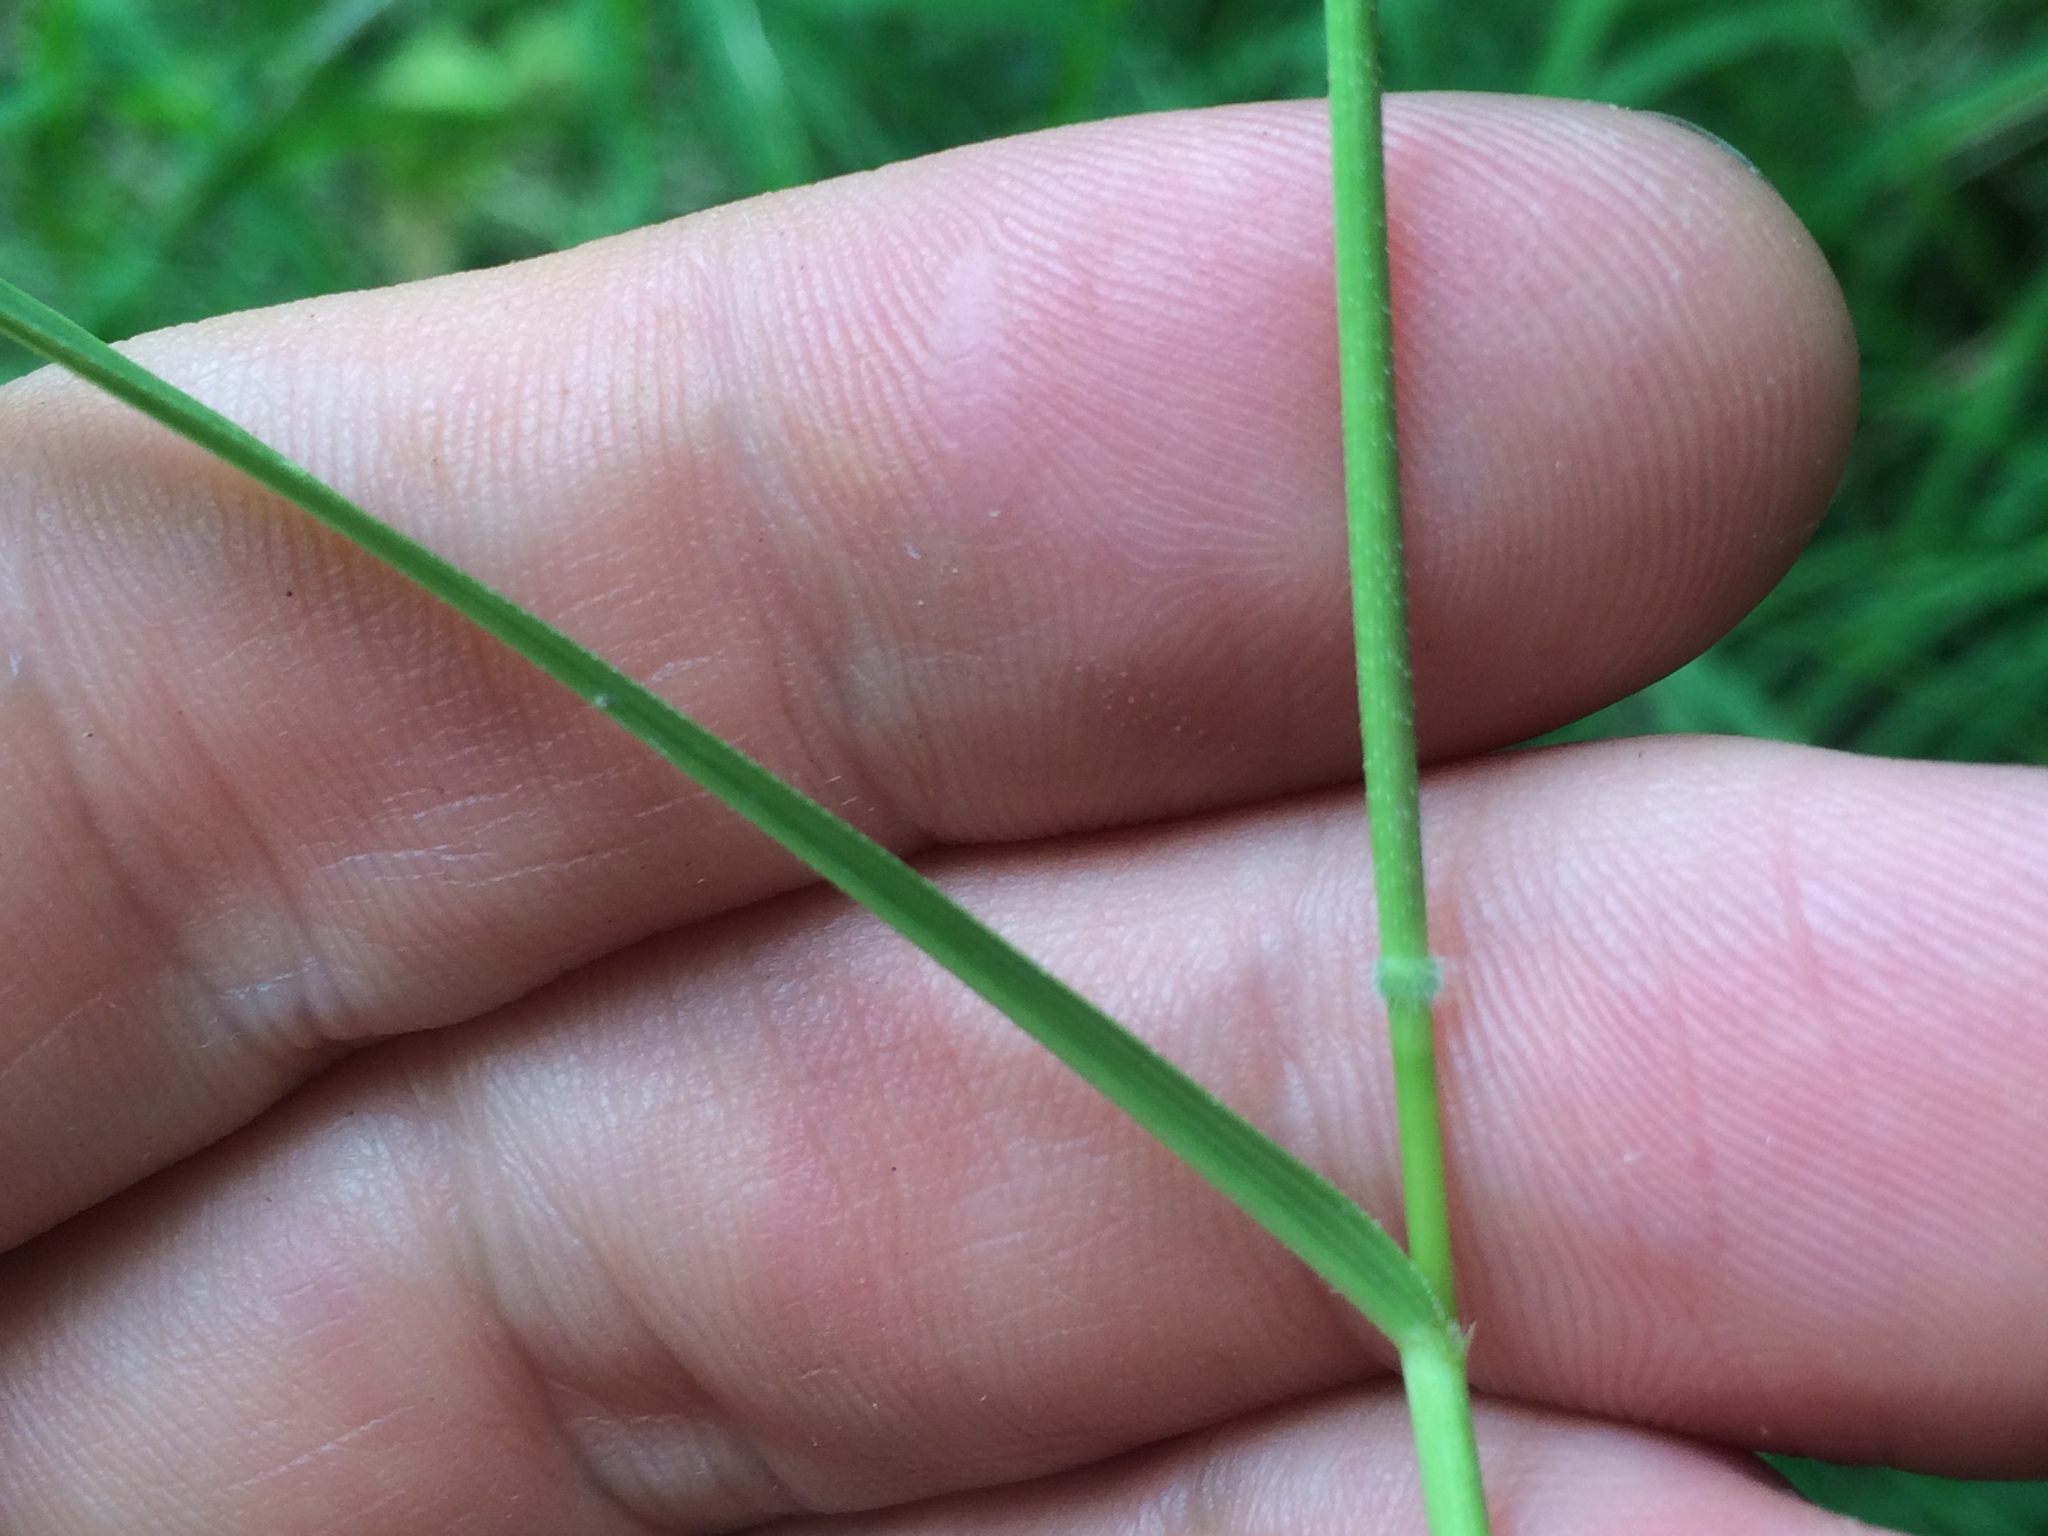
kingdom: Plantae
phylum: Tracheophyta
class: Liliopsida
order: Poales
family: Poaceae
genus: Leersia
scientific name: Leersia oryzoides
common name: Cut-grass
